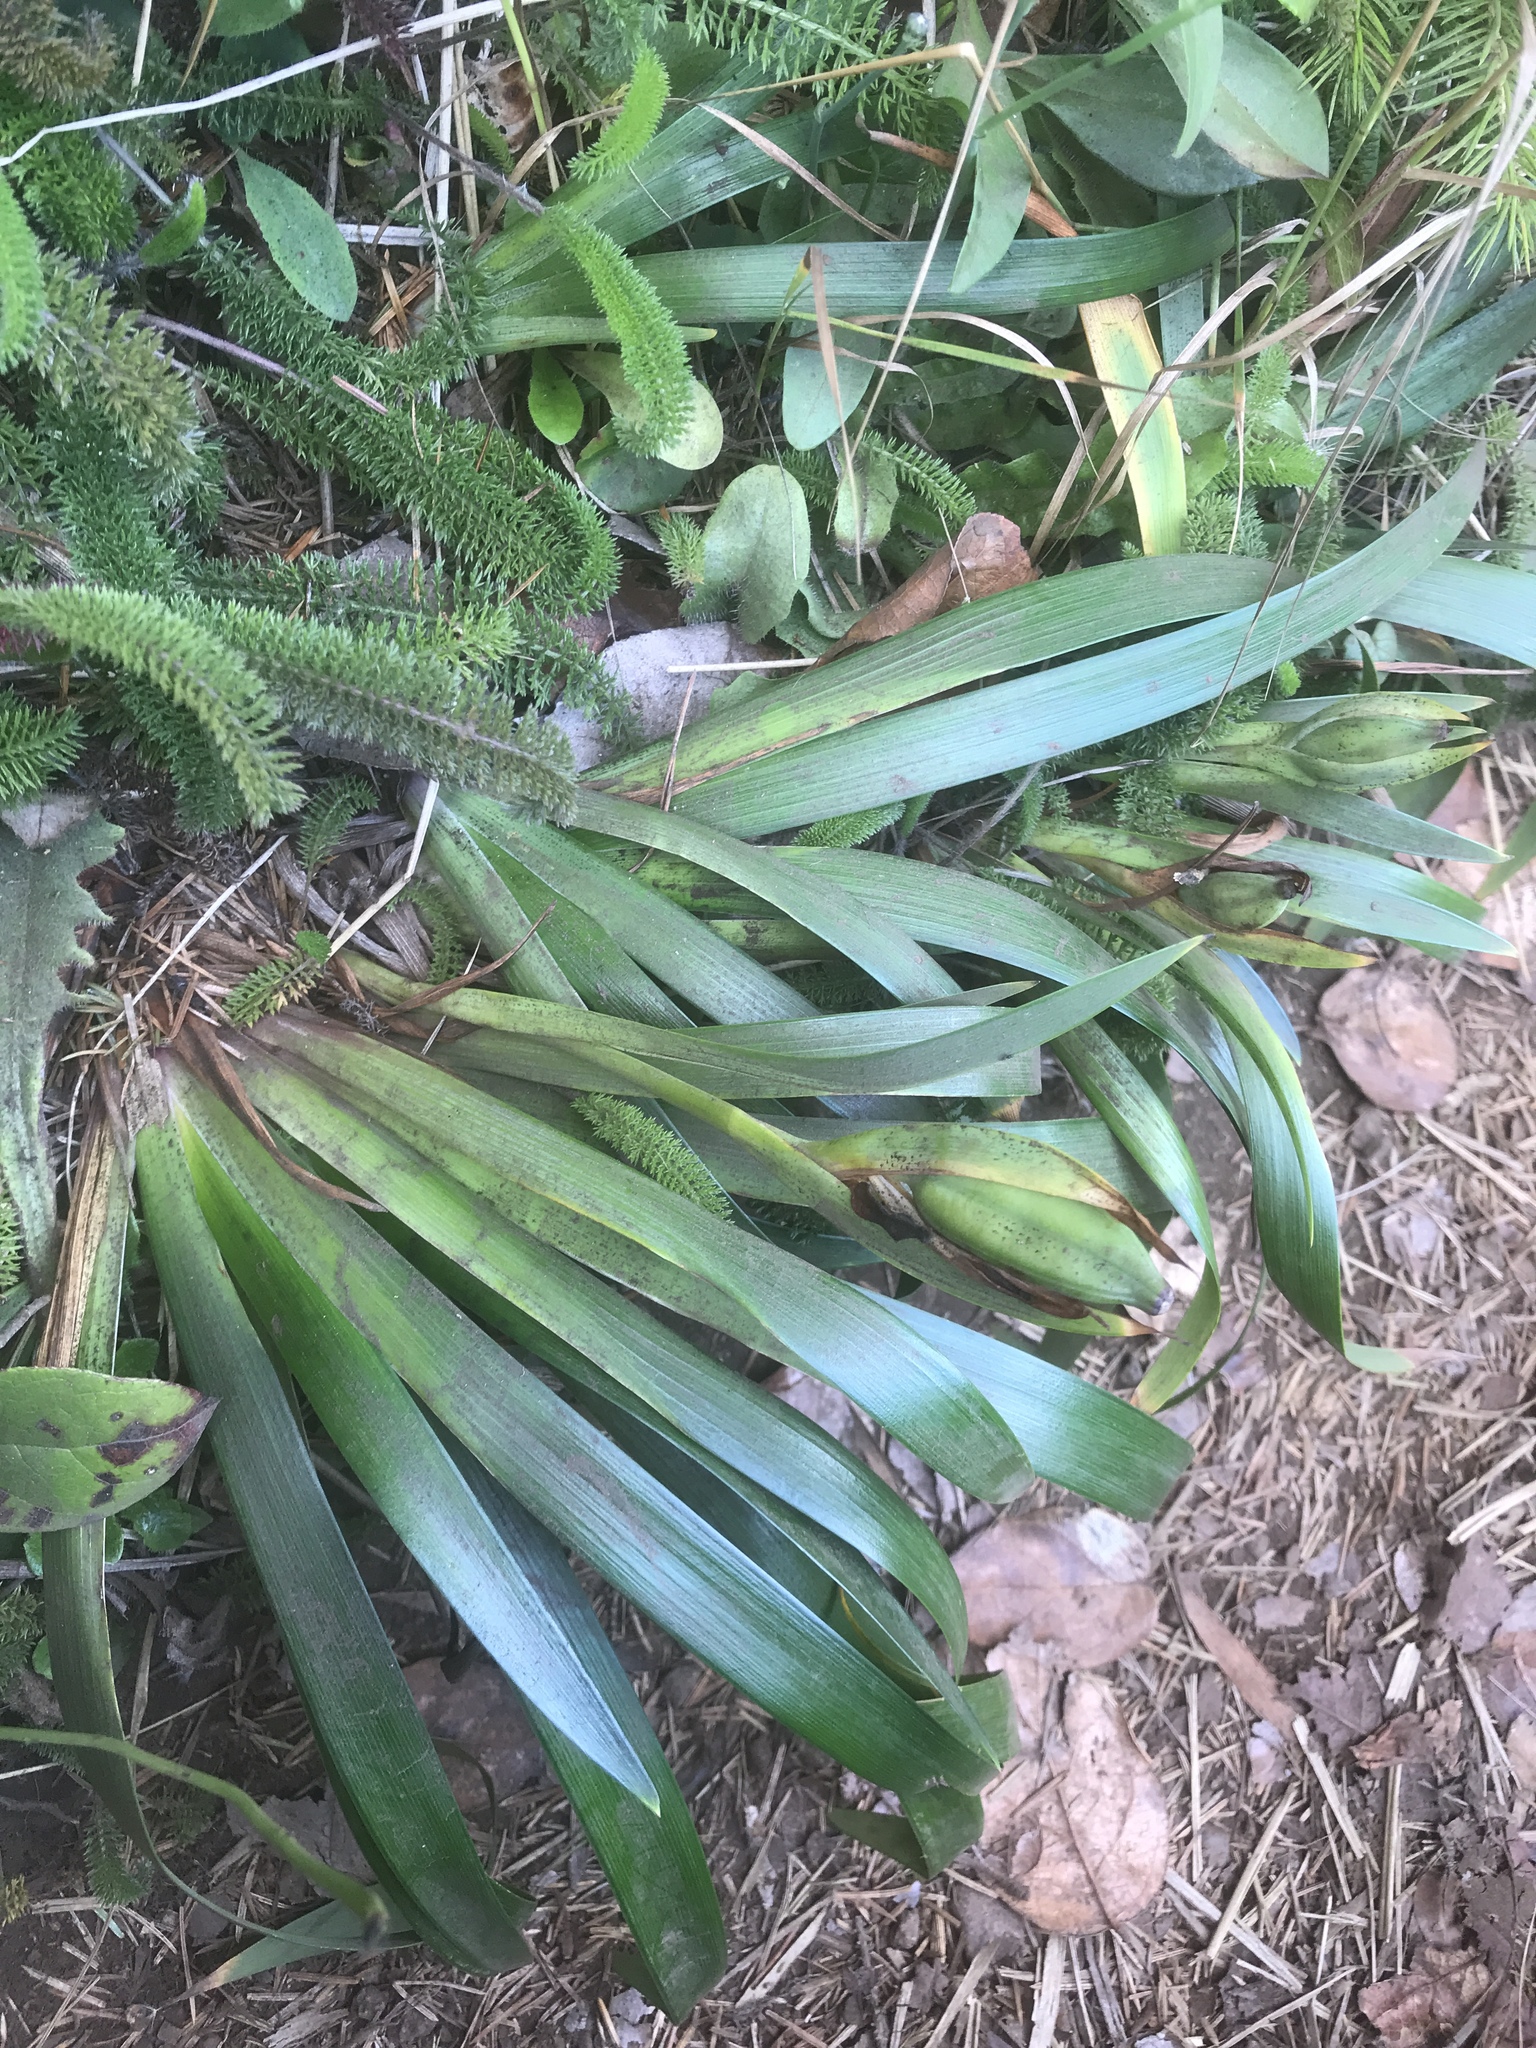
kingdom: Plantae
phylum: Tracheophyta
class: Liliopsida
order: Asparagales
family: Iridaceae
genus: Iris
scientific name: Iris douglasiana
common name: Marin iris
